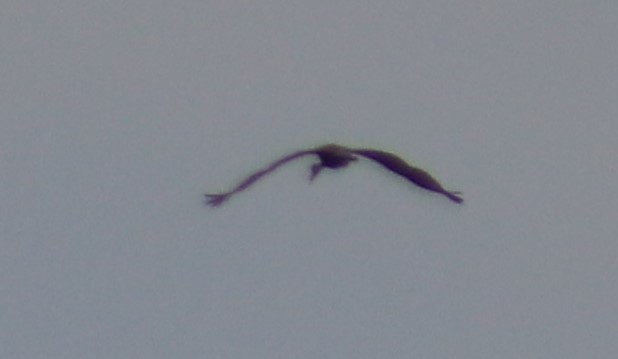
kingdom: Animalia
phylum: Chordata
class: Aves
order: Gruiformes
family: Gruidae
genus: Grus
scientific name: Grus canadensis
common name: Sandhill crane
